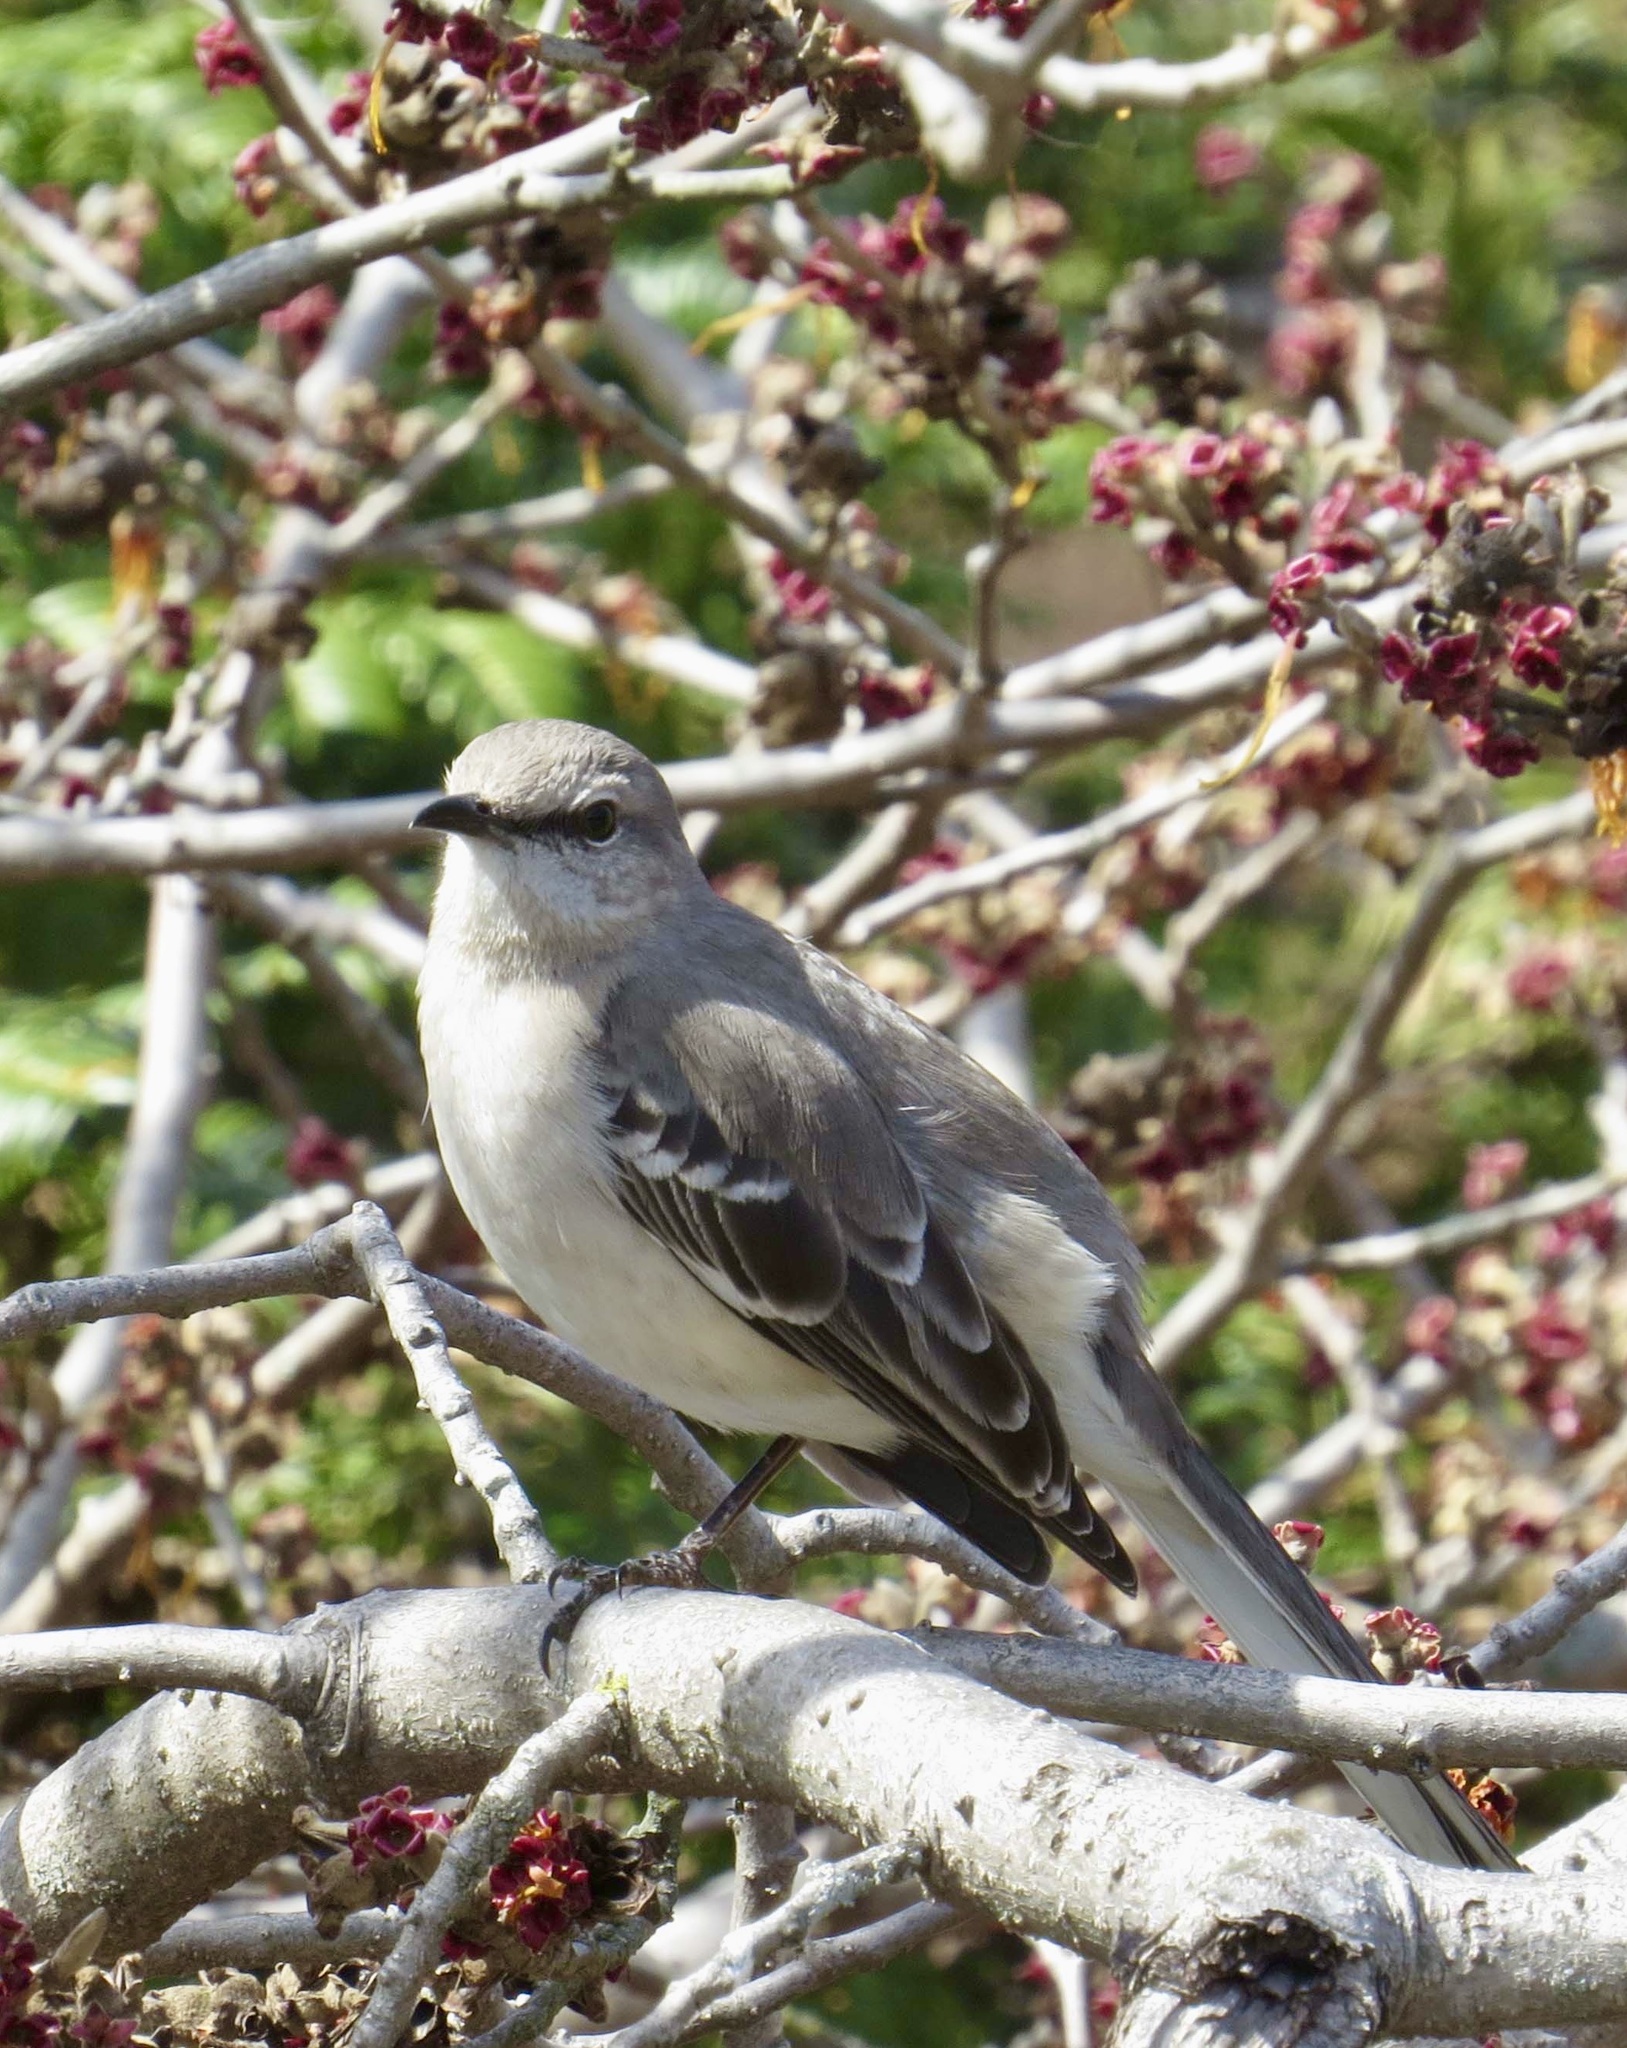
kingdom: Animalia
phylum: Chordata
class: Aves
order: Passeriformes
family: Mimidae
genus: Mimus
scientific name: Mimus polyglottos
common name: Northern mockingbird
